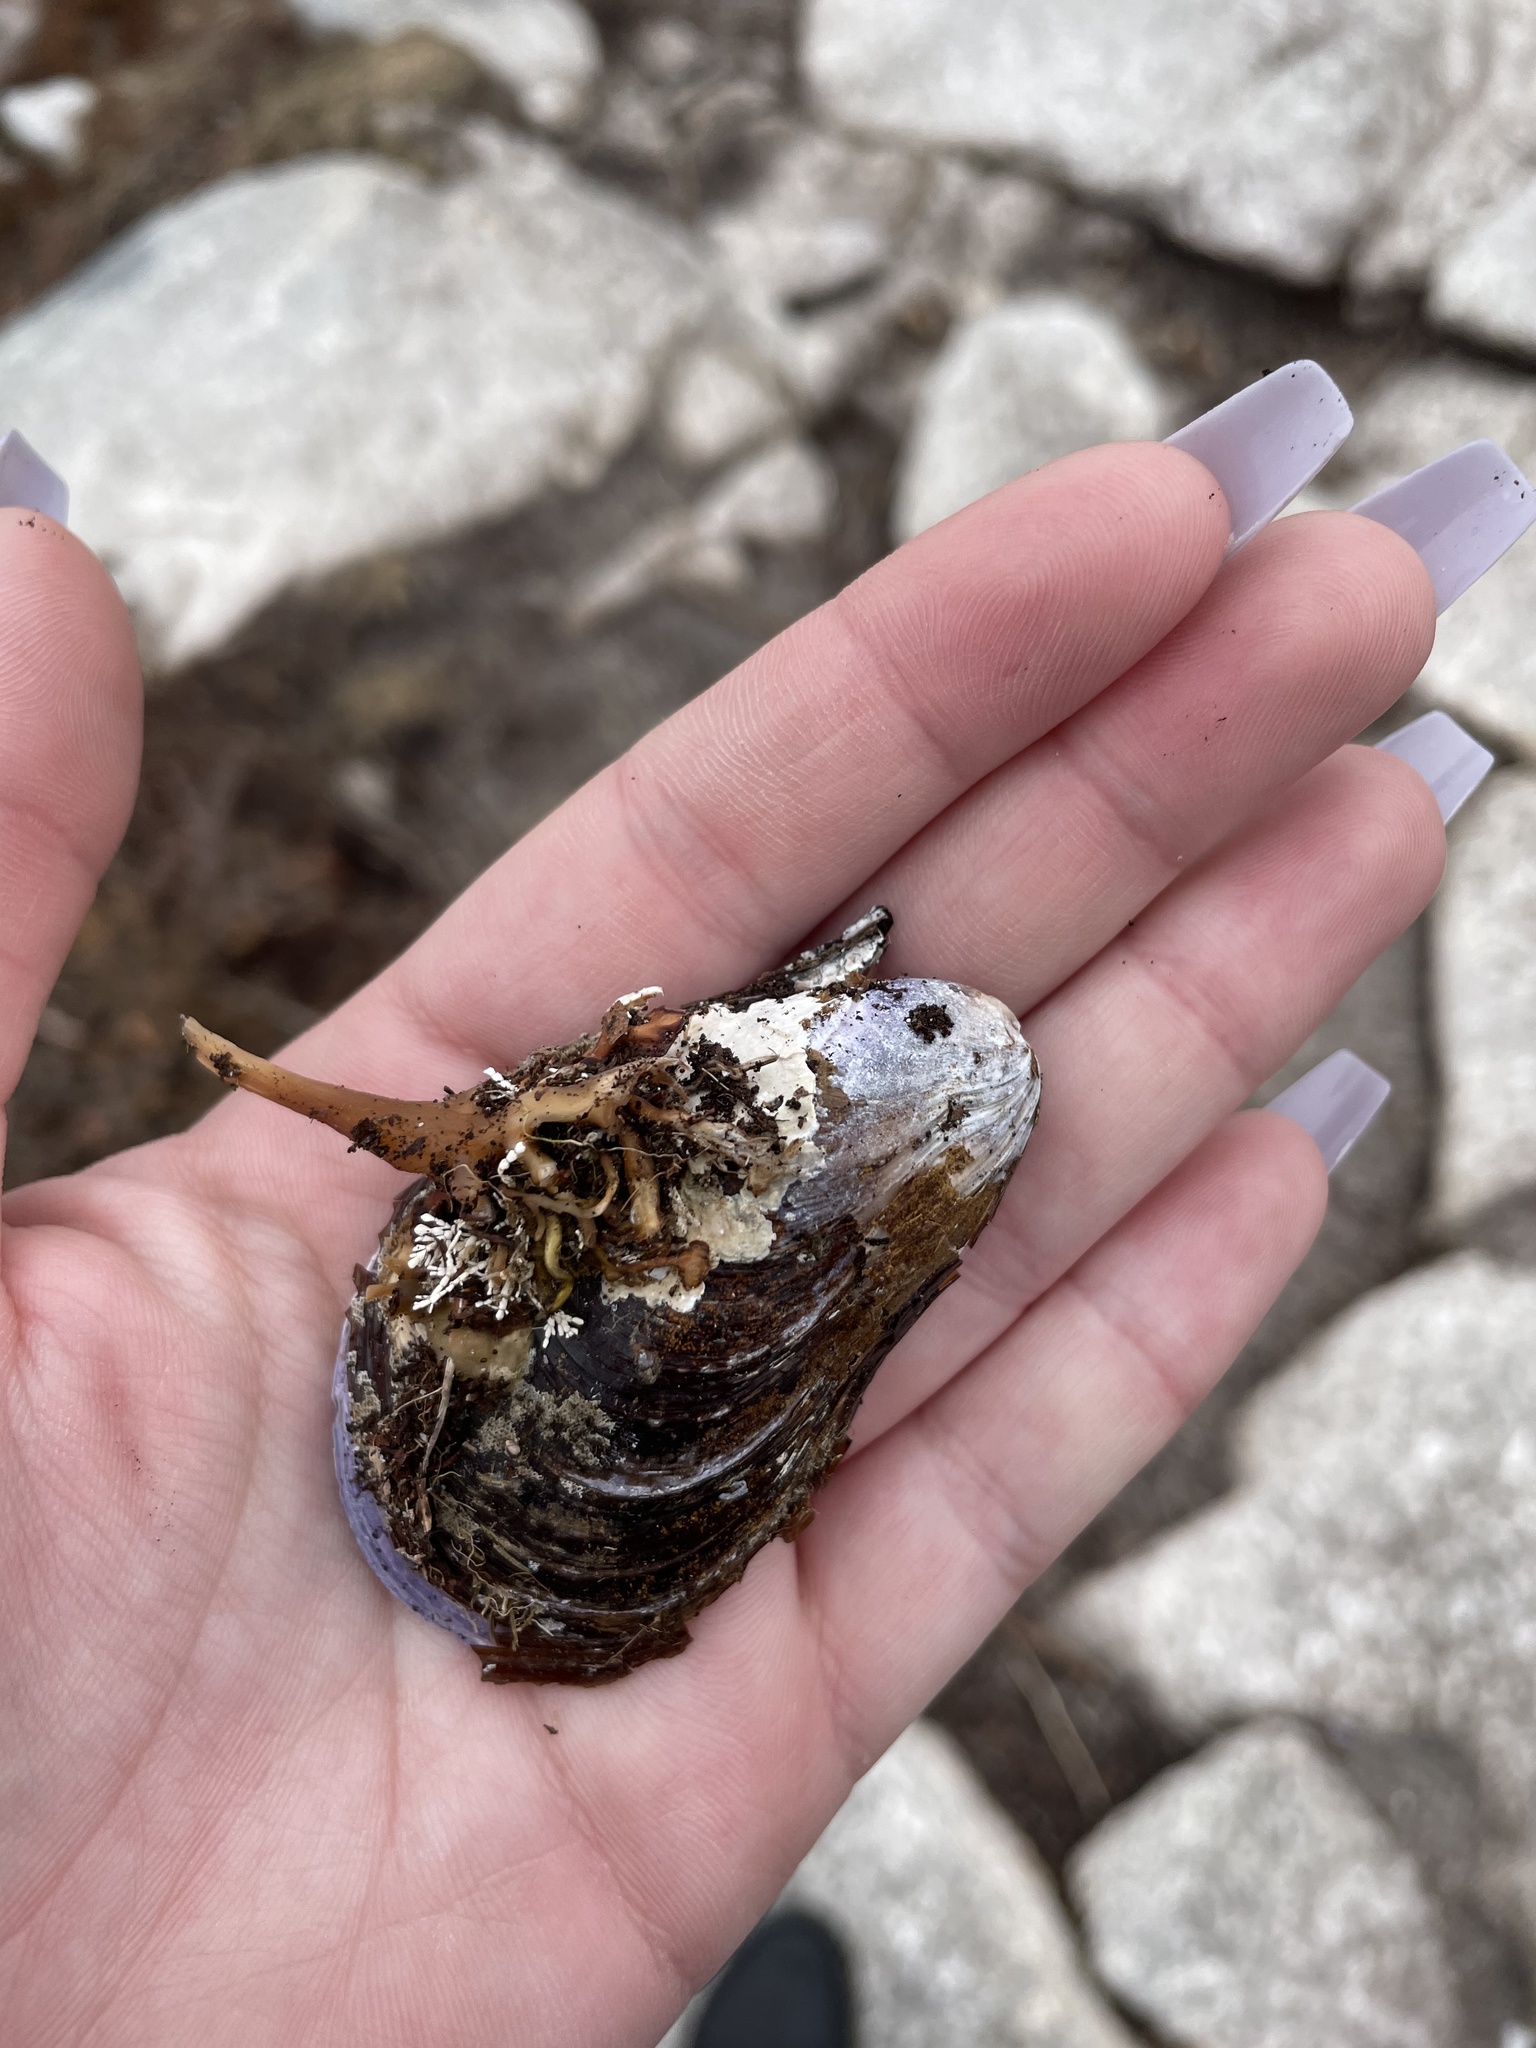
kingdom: Animalia
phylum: Mollusca
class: Bivalvia
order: Mytilida
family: Mytilidae
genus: Modiolus
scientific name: Modiolus modiolus
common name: Horse-mussel
